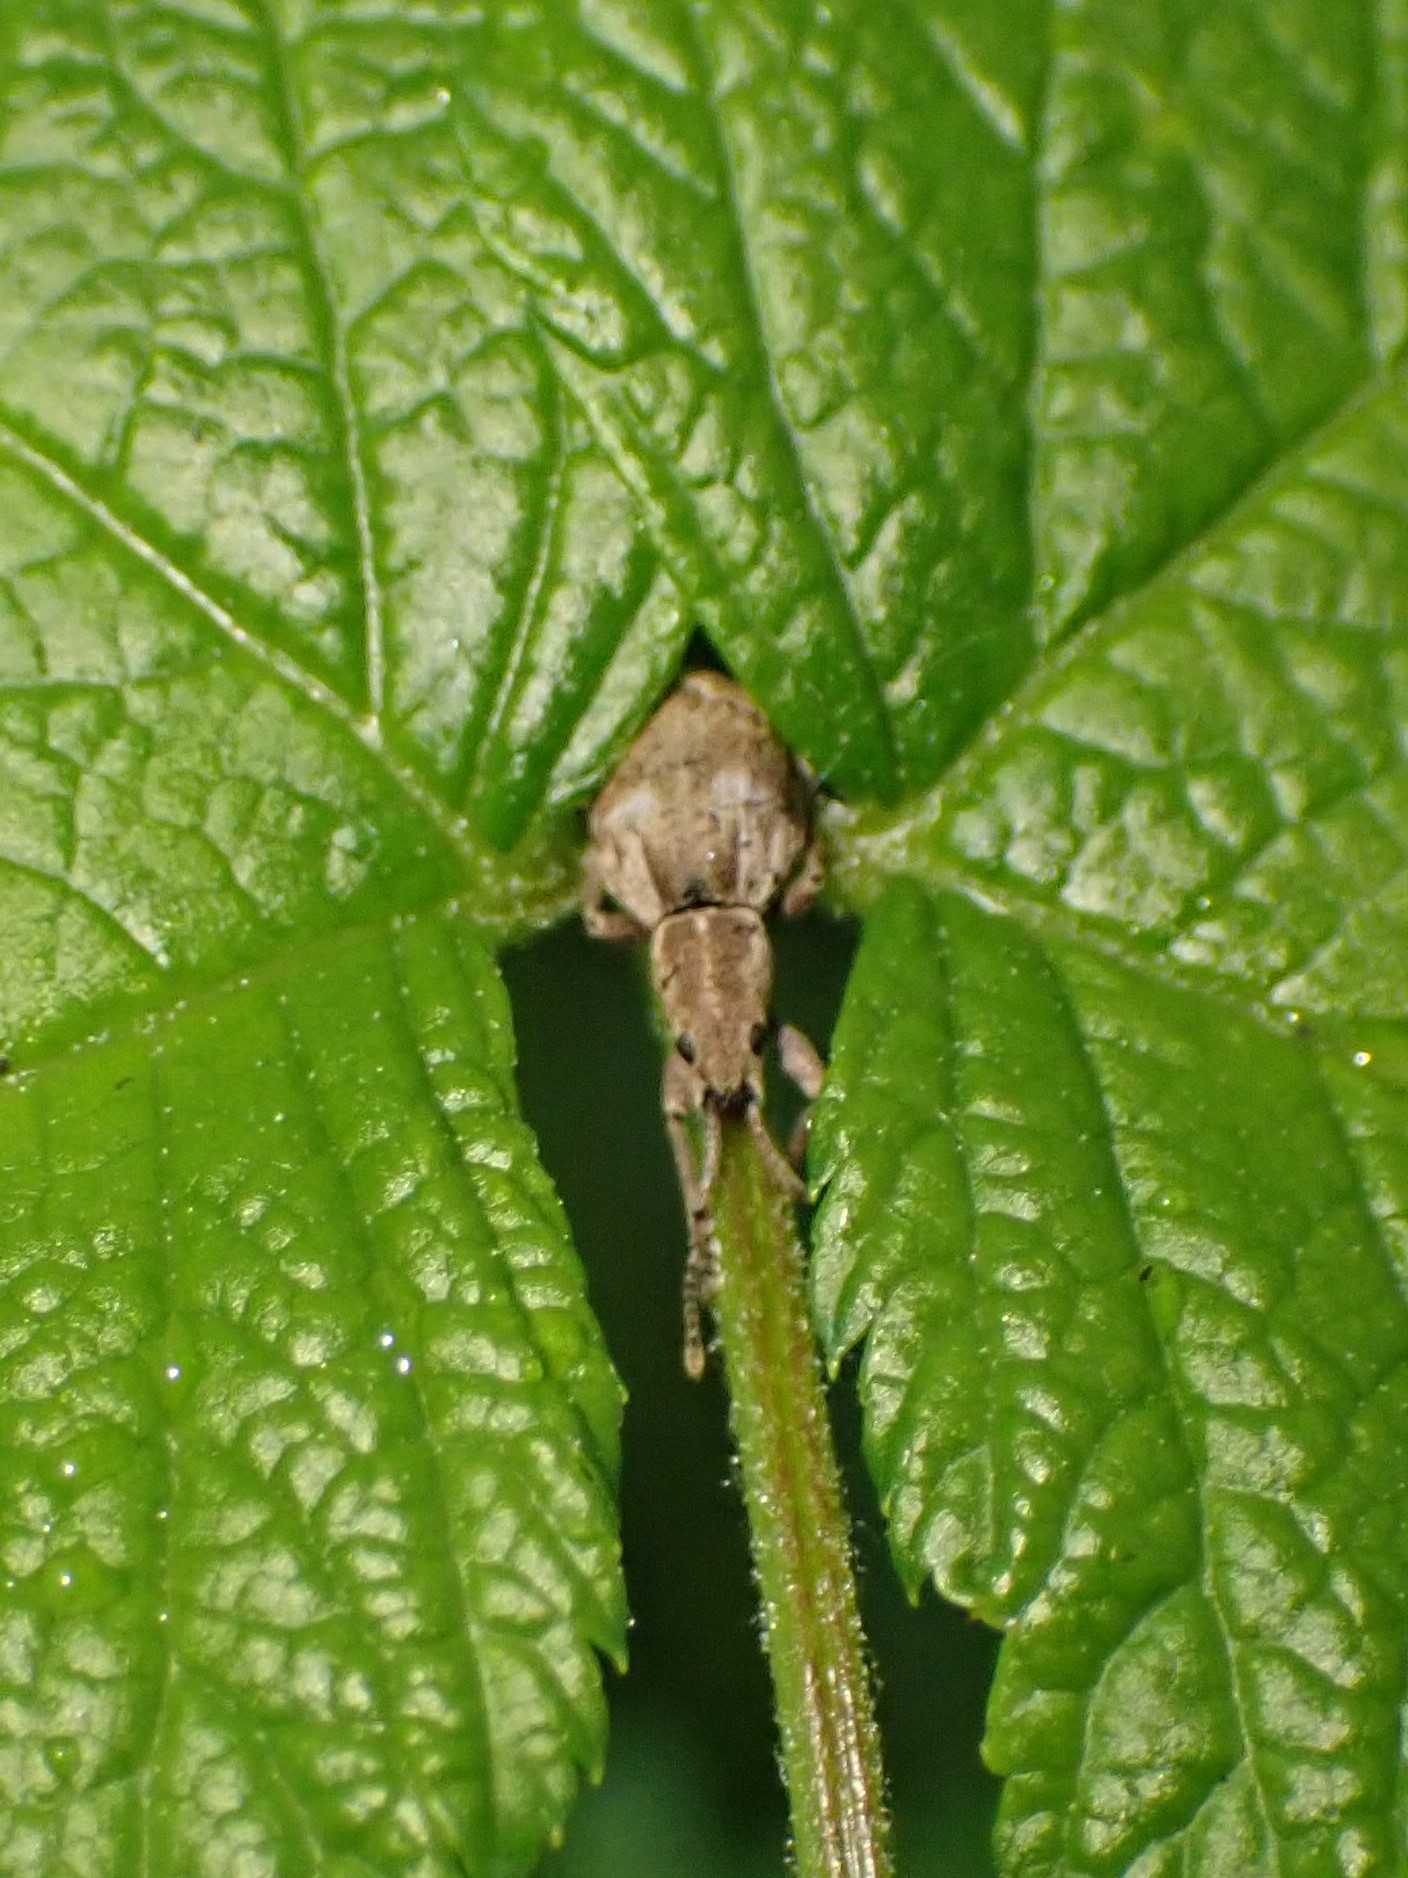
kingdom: Animalia
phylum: Arthropoda
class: Insecta
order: Coleoptera
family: Curculionidae
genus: Sciopithes
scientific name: Sciopithes obscurus
